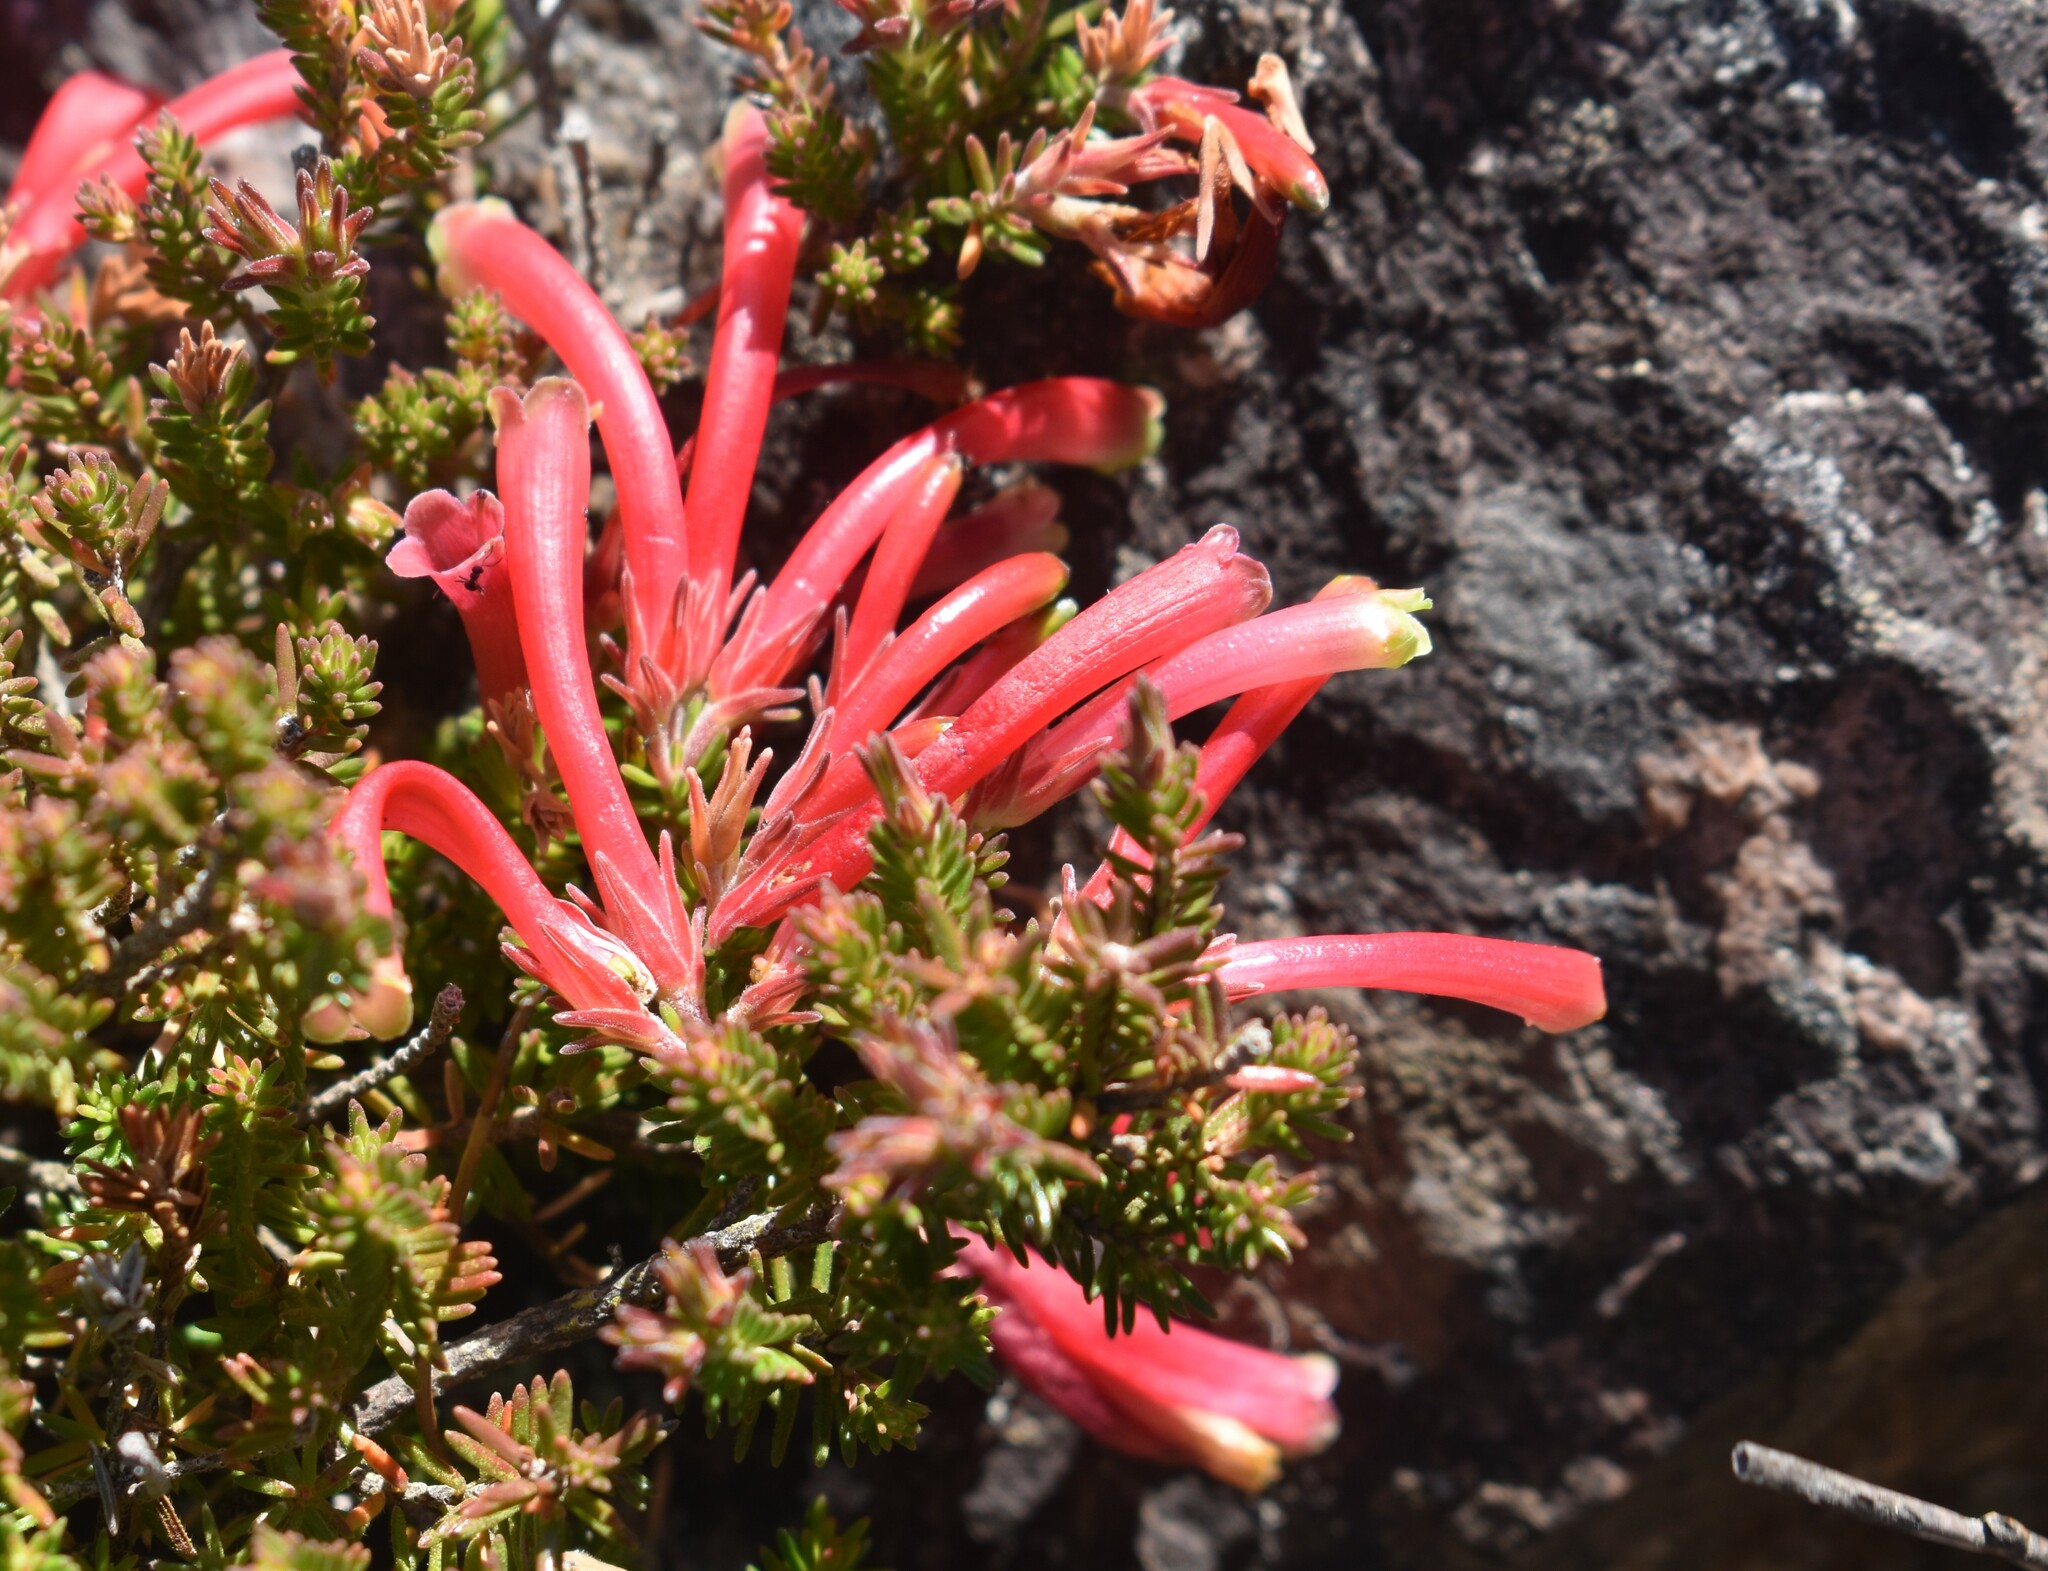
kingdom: Plantae
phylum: Tracheophyta
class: Magnoliopsida
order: Ericales
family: Ericaceae
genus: Erica
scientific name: Erica discolor
